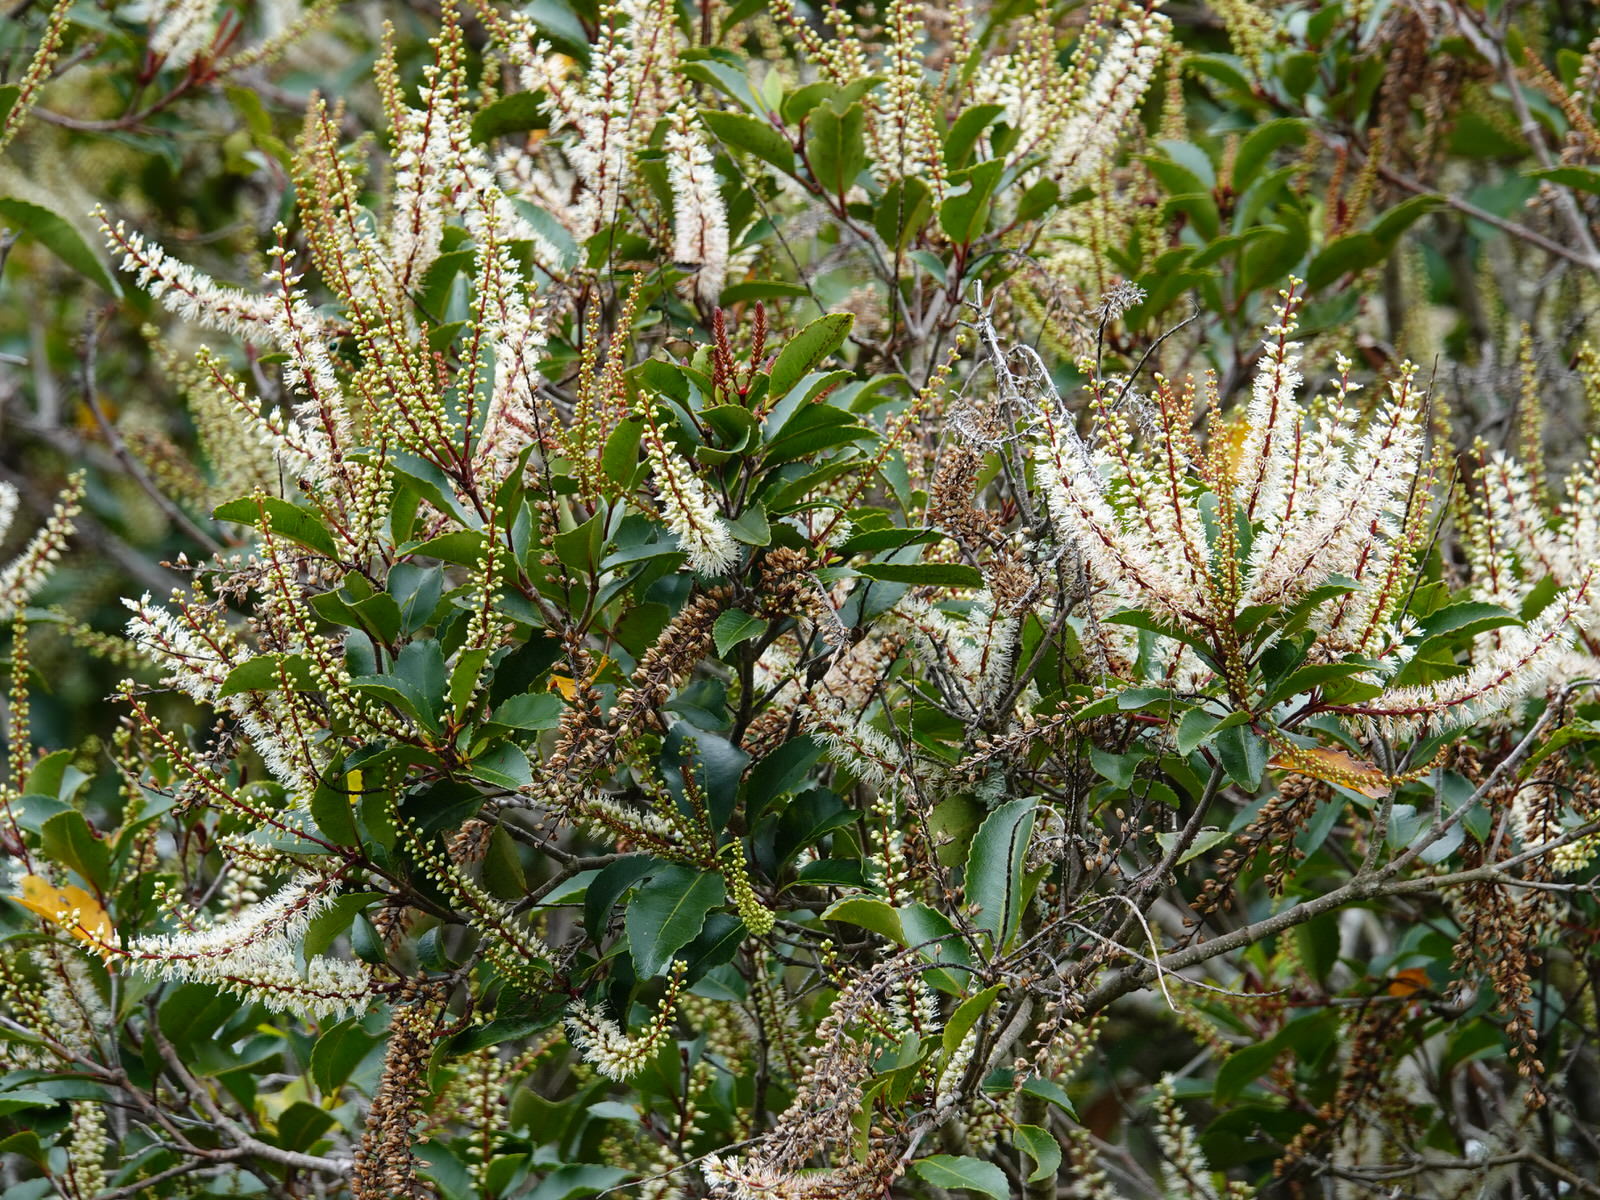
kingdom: Plantae
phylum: Tracheophyta
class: Magnoliopsida
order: Oxalidales
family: Cunoniaceae
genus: Pterophylla
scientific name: Pterophylla racemosa
